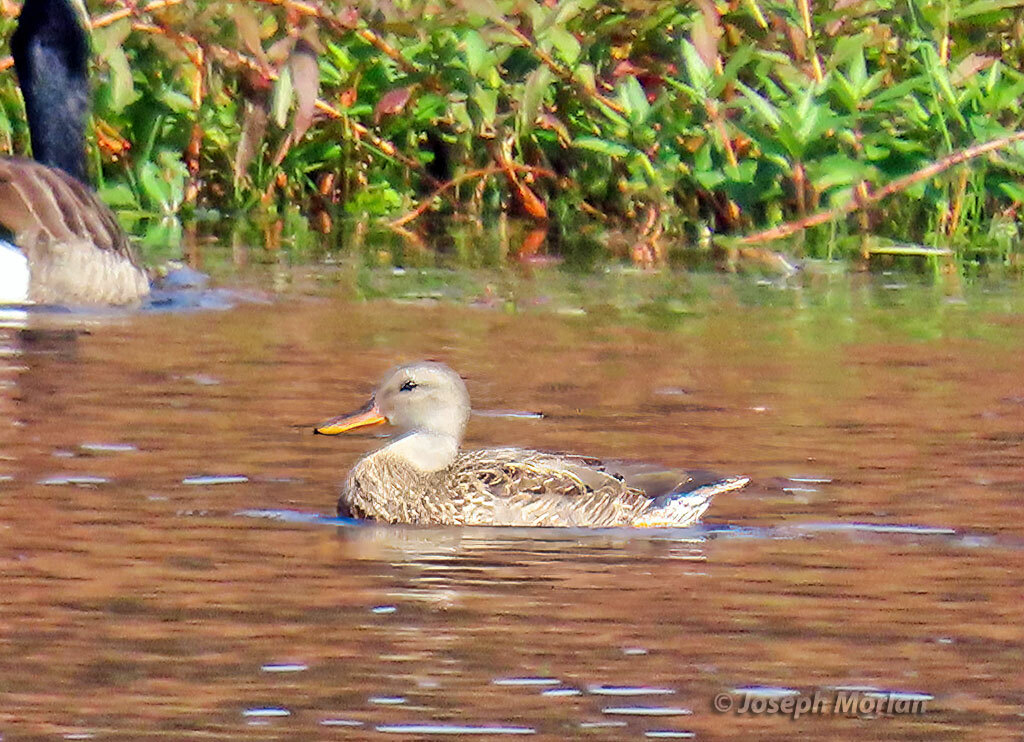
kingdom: Animalia
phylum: Chordata
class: Aves
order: Anseriformes
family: Anatidae
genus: Mareca
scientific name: Mareca strepera
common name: Gadwall
